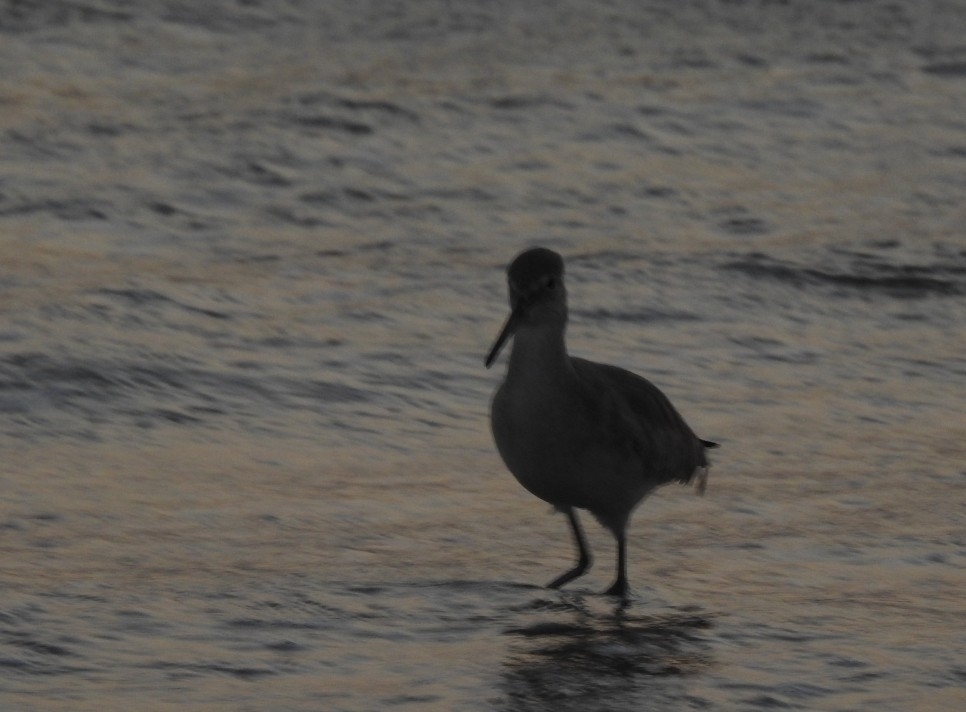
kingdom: Animalia
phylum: Chordata
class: Aves
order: Charadriiformes
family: Scolopacidae
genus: Tringa
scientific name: Tringa semipalmata
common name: Willet
